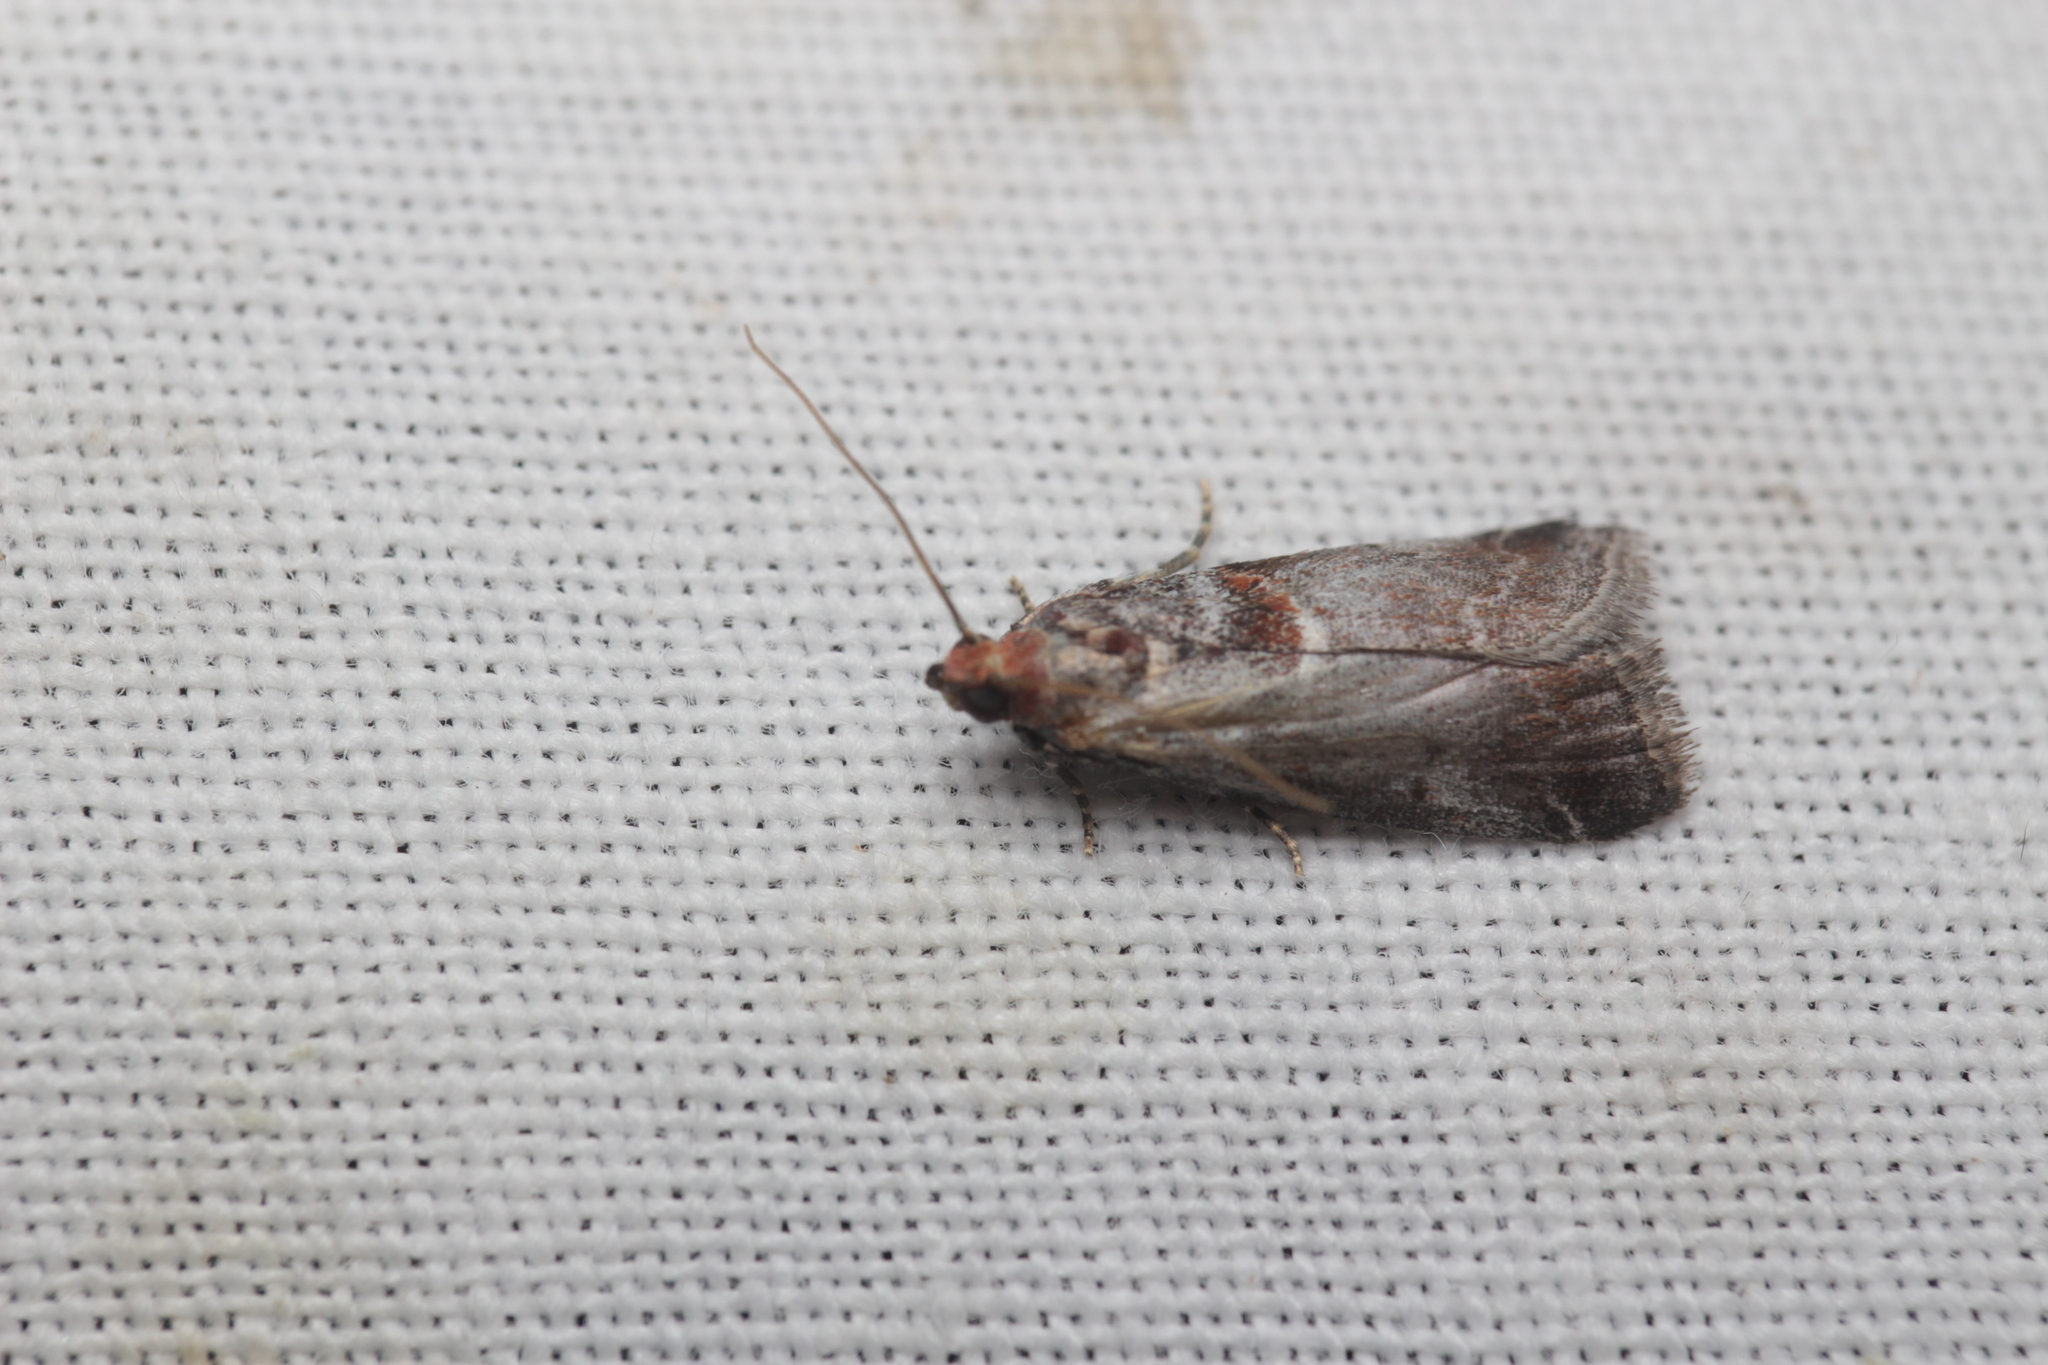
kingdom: Animalia
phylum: Arthropoda
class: Insecta
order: Lepidoptera
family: Pyralidae
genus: Acrobasis
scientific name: Acrobasis advenella
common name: Grey knot-horn
